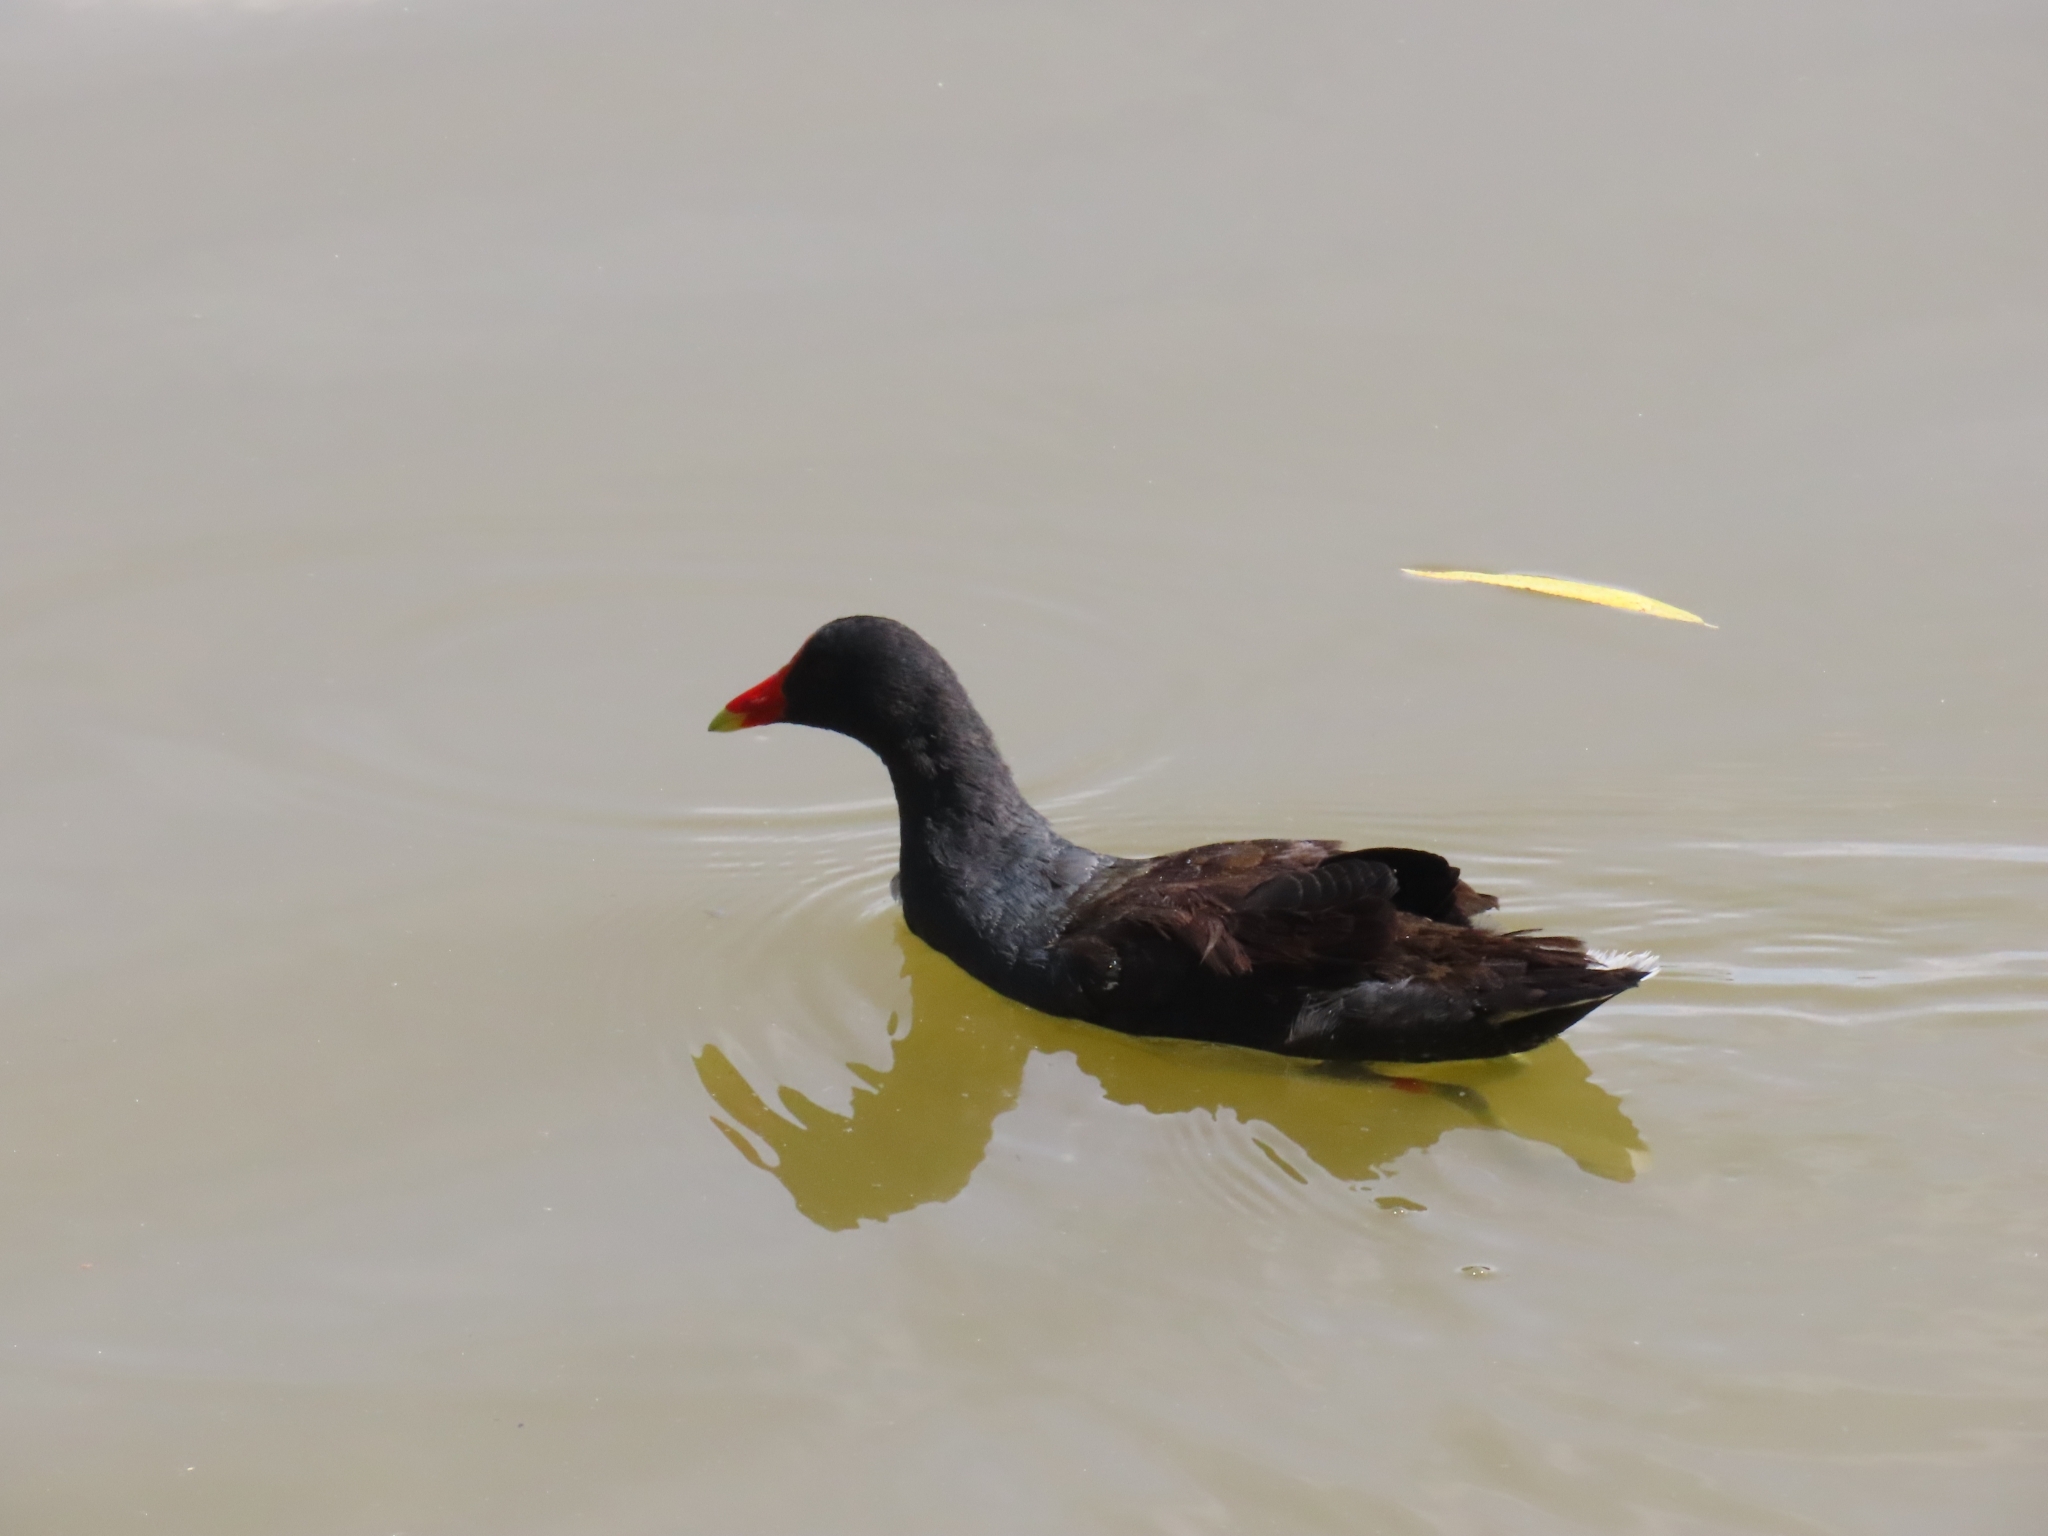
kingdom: Animalia
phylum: Chordata
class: Aves
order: Gruiformes
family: Rallidae
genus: Gallinula
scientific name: Gallinula chloropus
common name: Common moorhen
